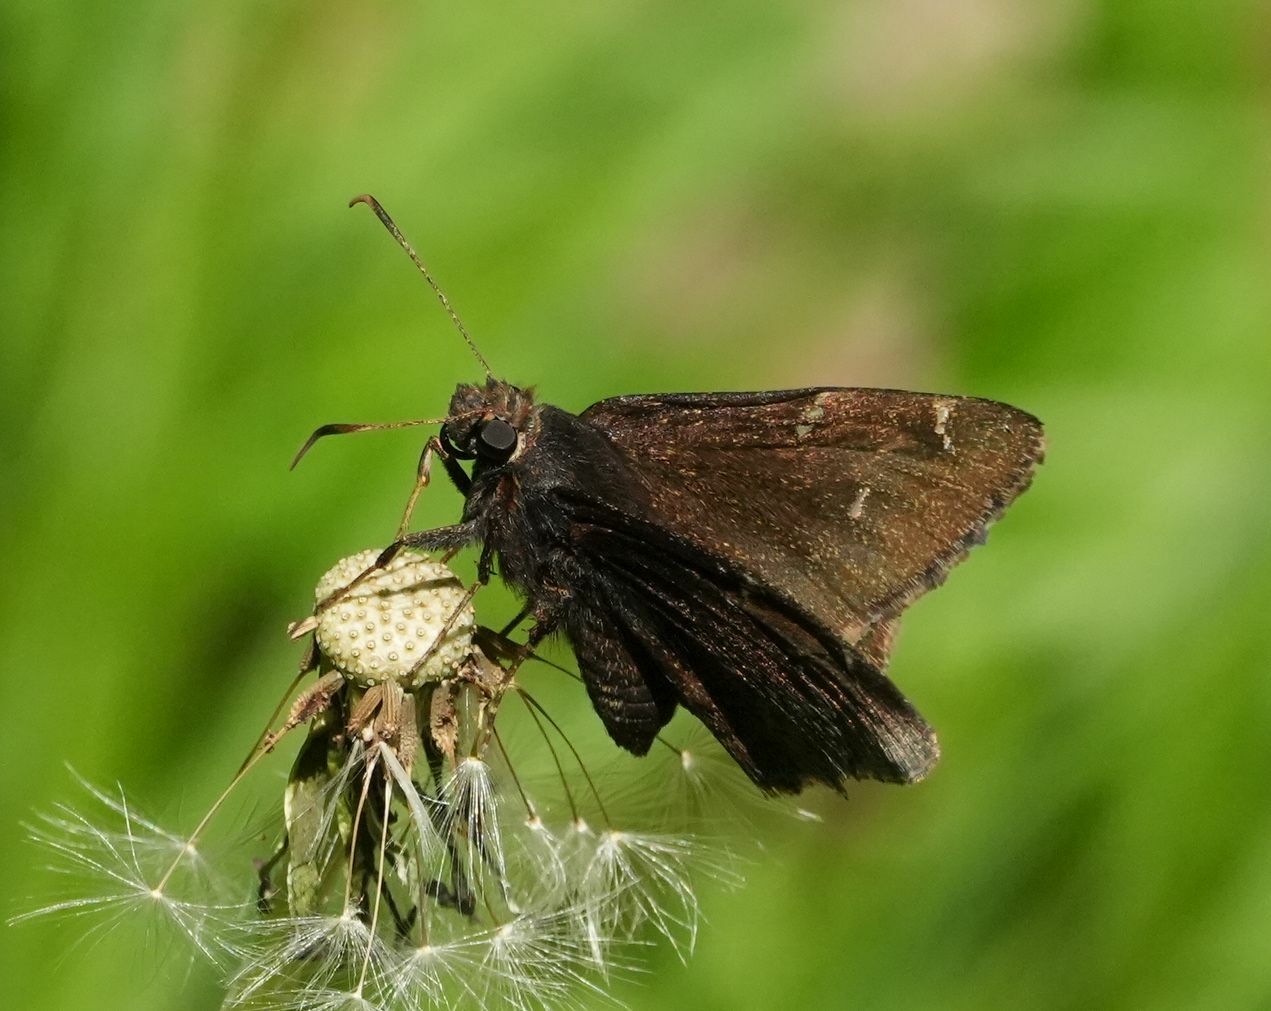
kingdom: Animalia
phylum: Arthropoda
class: Insecta
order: Lepidoptera
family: Hesperiidae
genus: Thorybes
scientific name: Thorybes pylades
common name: Northern cloudywing
